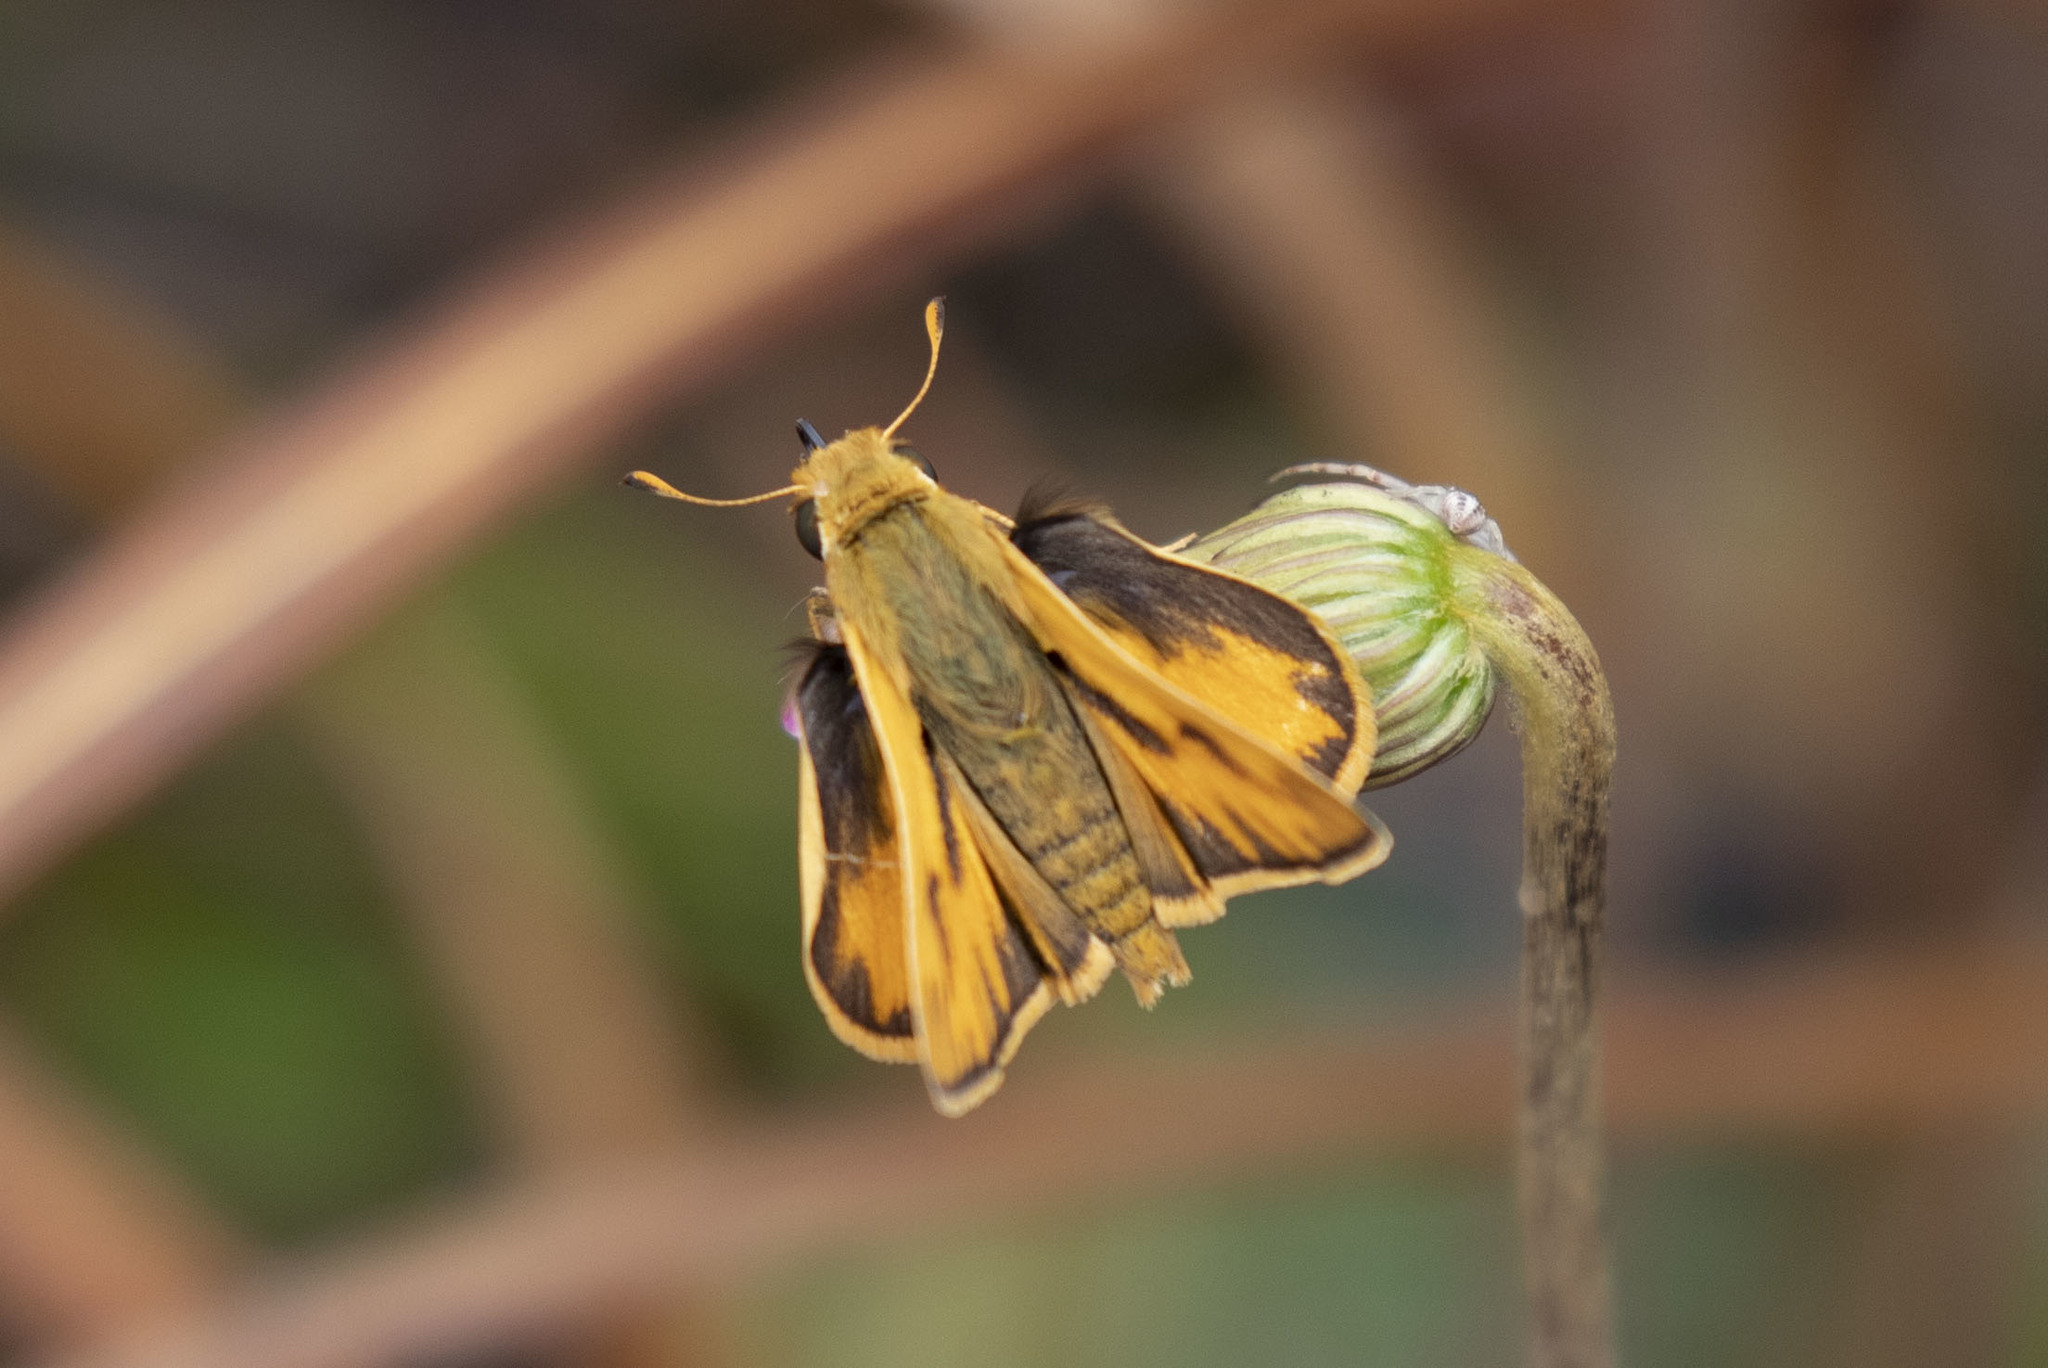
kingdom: Animalia
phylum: Arthropoda
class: Insecta
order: Lepidoptera
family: Hesperiidae
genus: Hylephila
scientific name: Hylephila phyleus
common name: Fiery skipper
